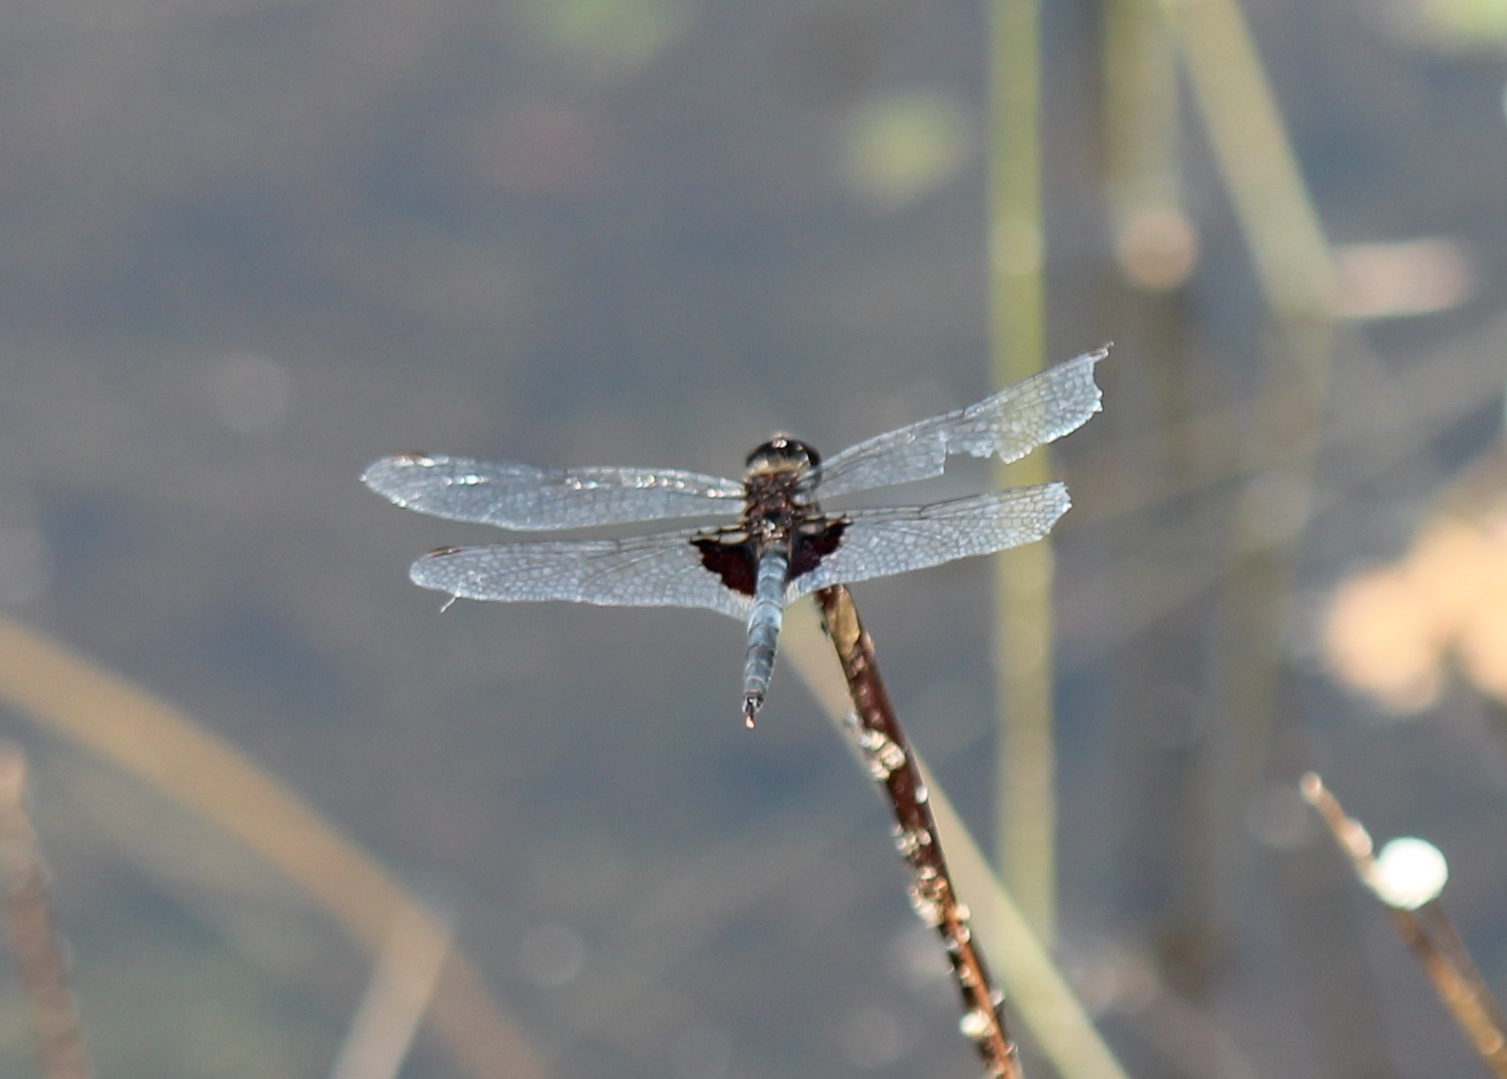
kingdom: Animalia
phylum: Arthropoda
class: Insecta
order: Odonata
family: Libellulidae
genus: Celithemis
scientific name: Celithemis martha
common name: Martha's pennant
